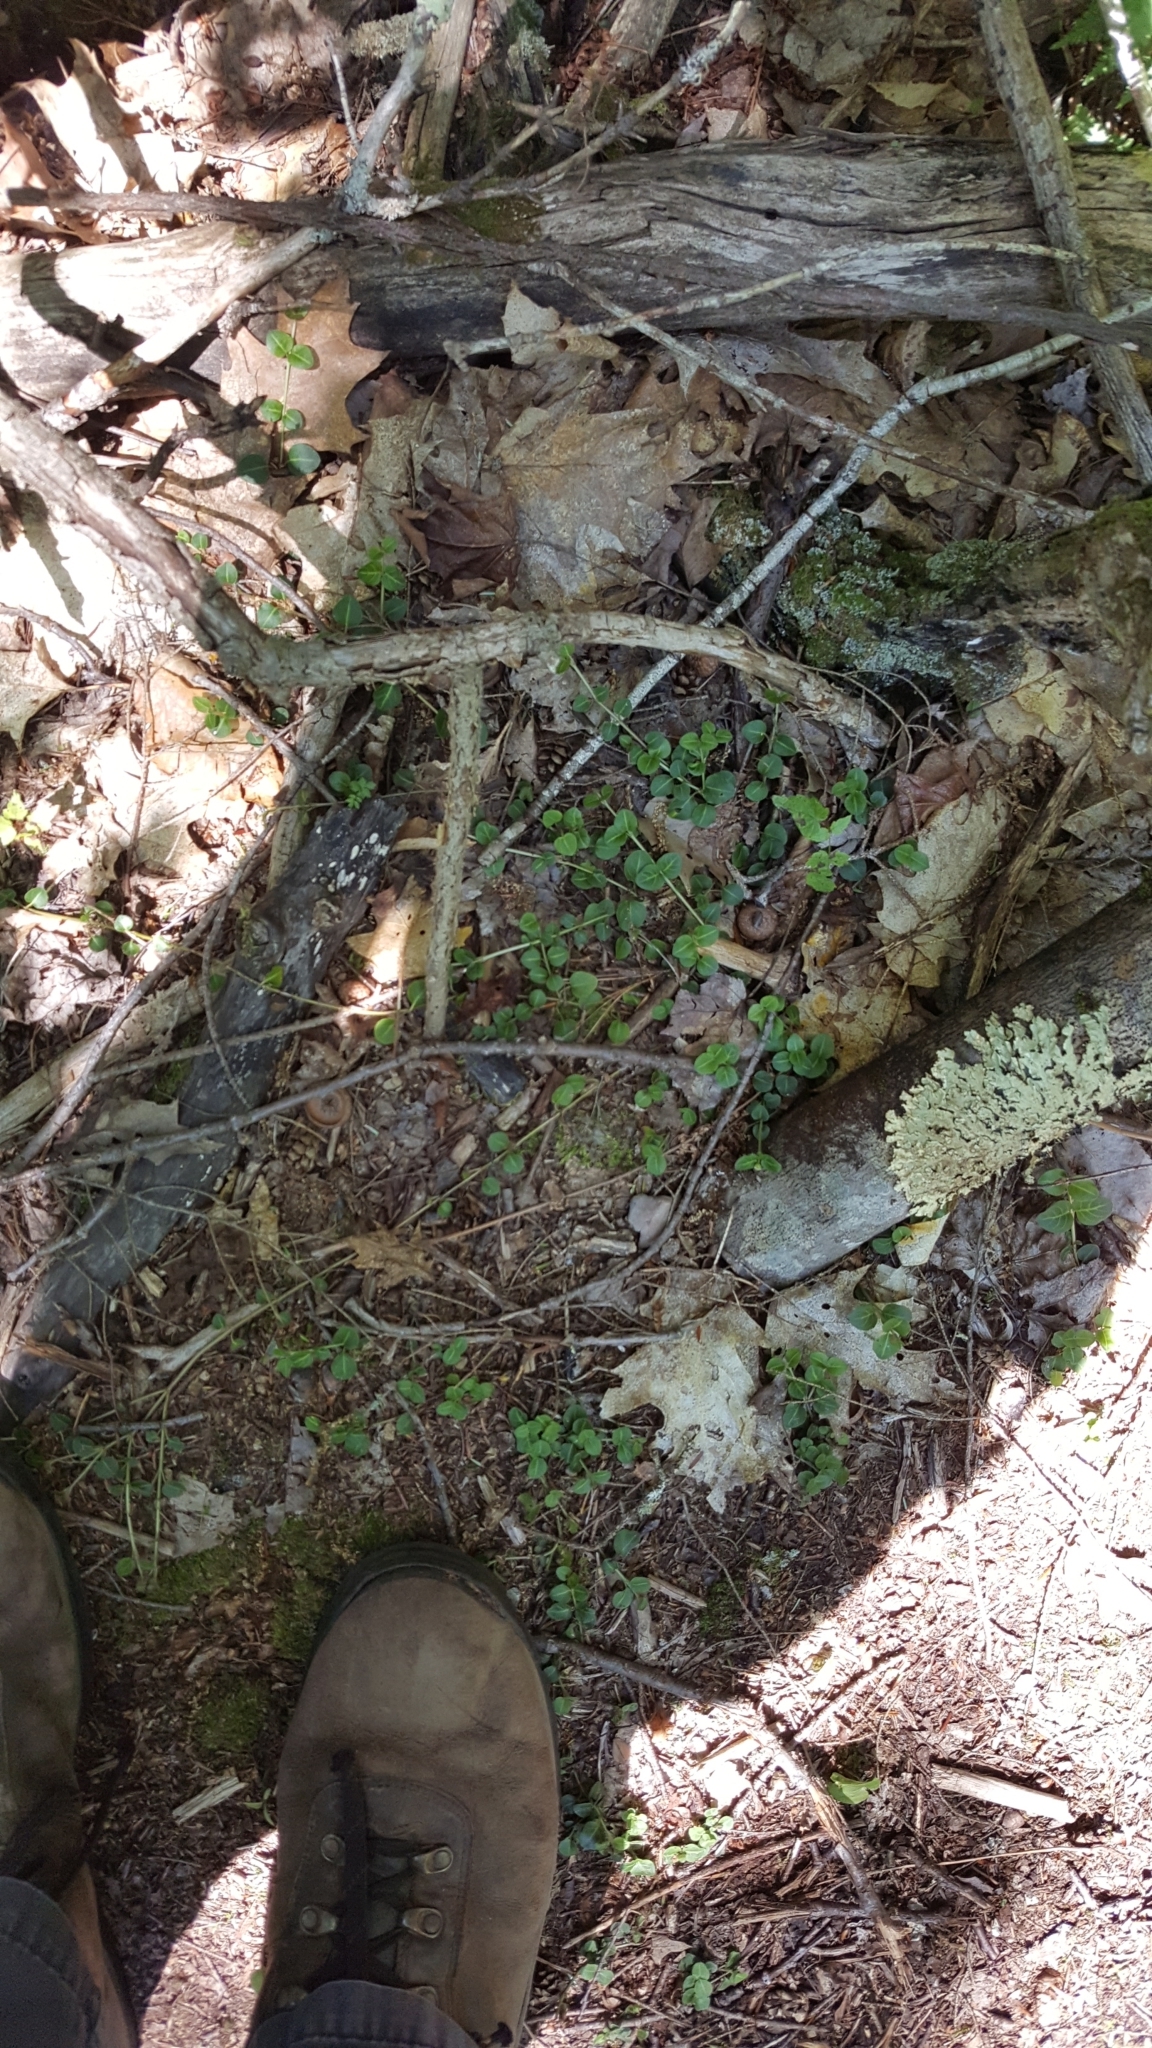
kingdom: Plantae
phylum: Tracheophyta
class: Magnoliopsida
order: Gentianales
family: Rubiaceae
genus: Mitchella
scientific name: Mitchella repens
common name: Partridge-berry
